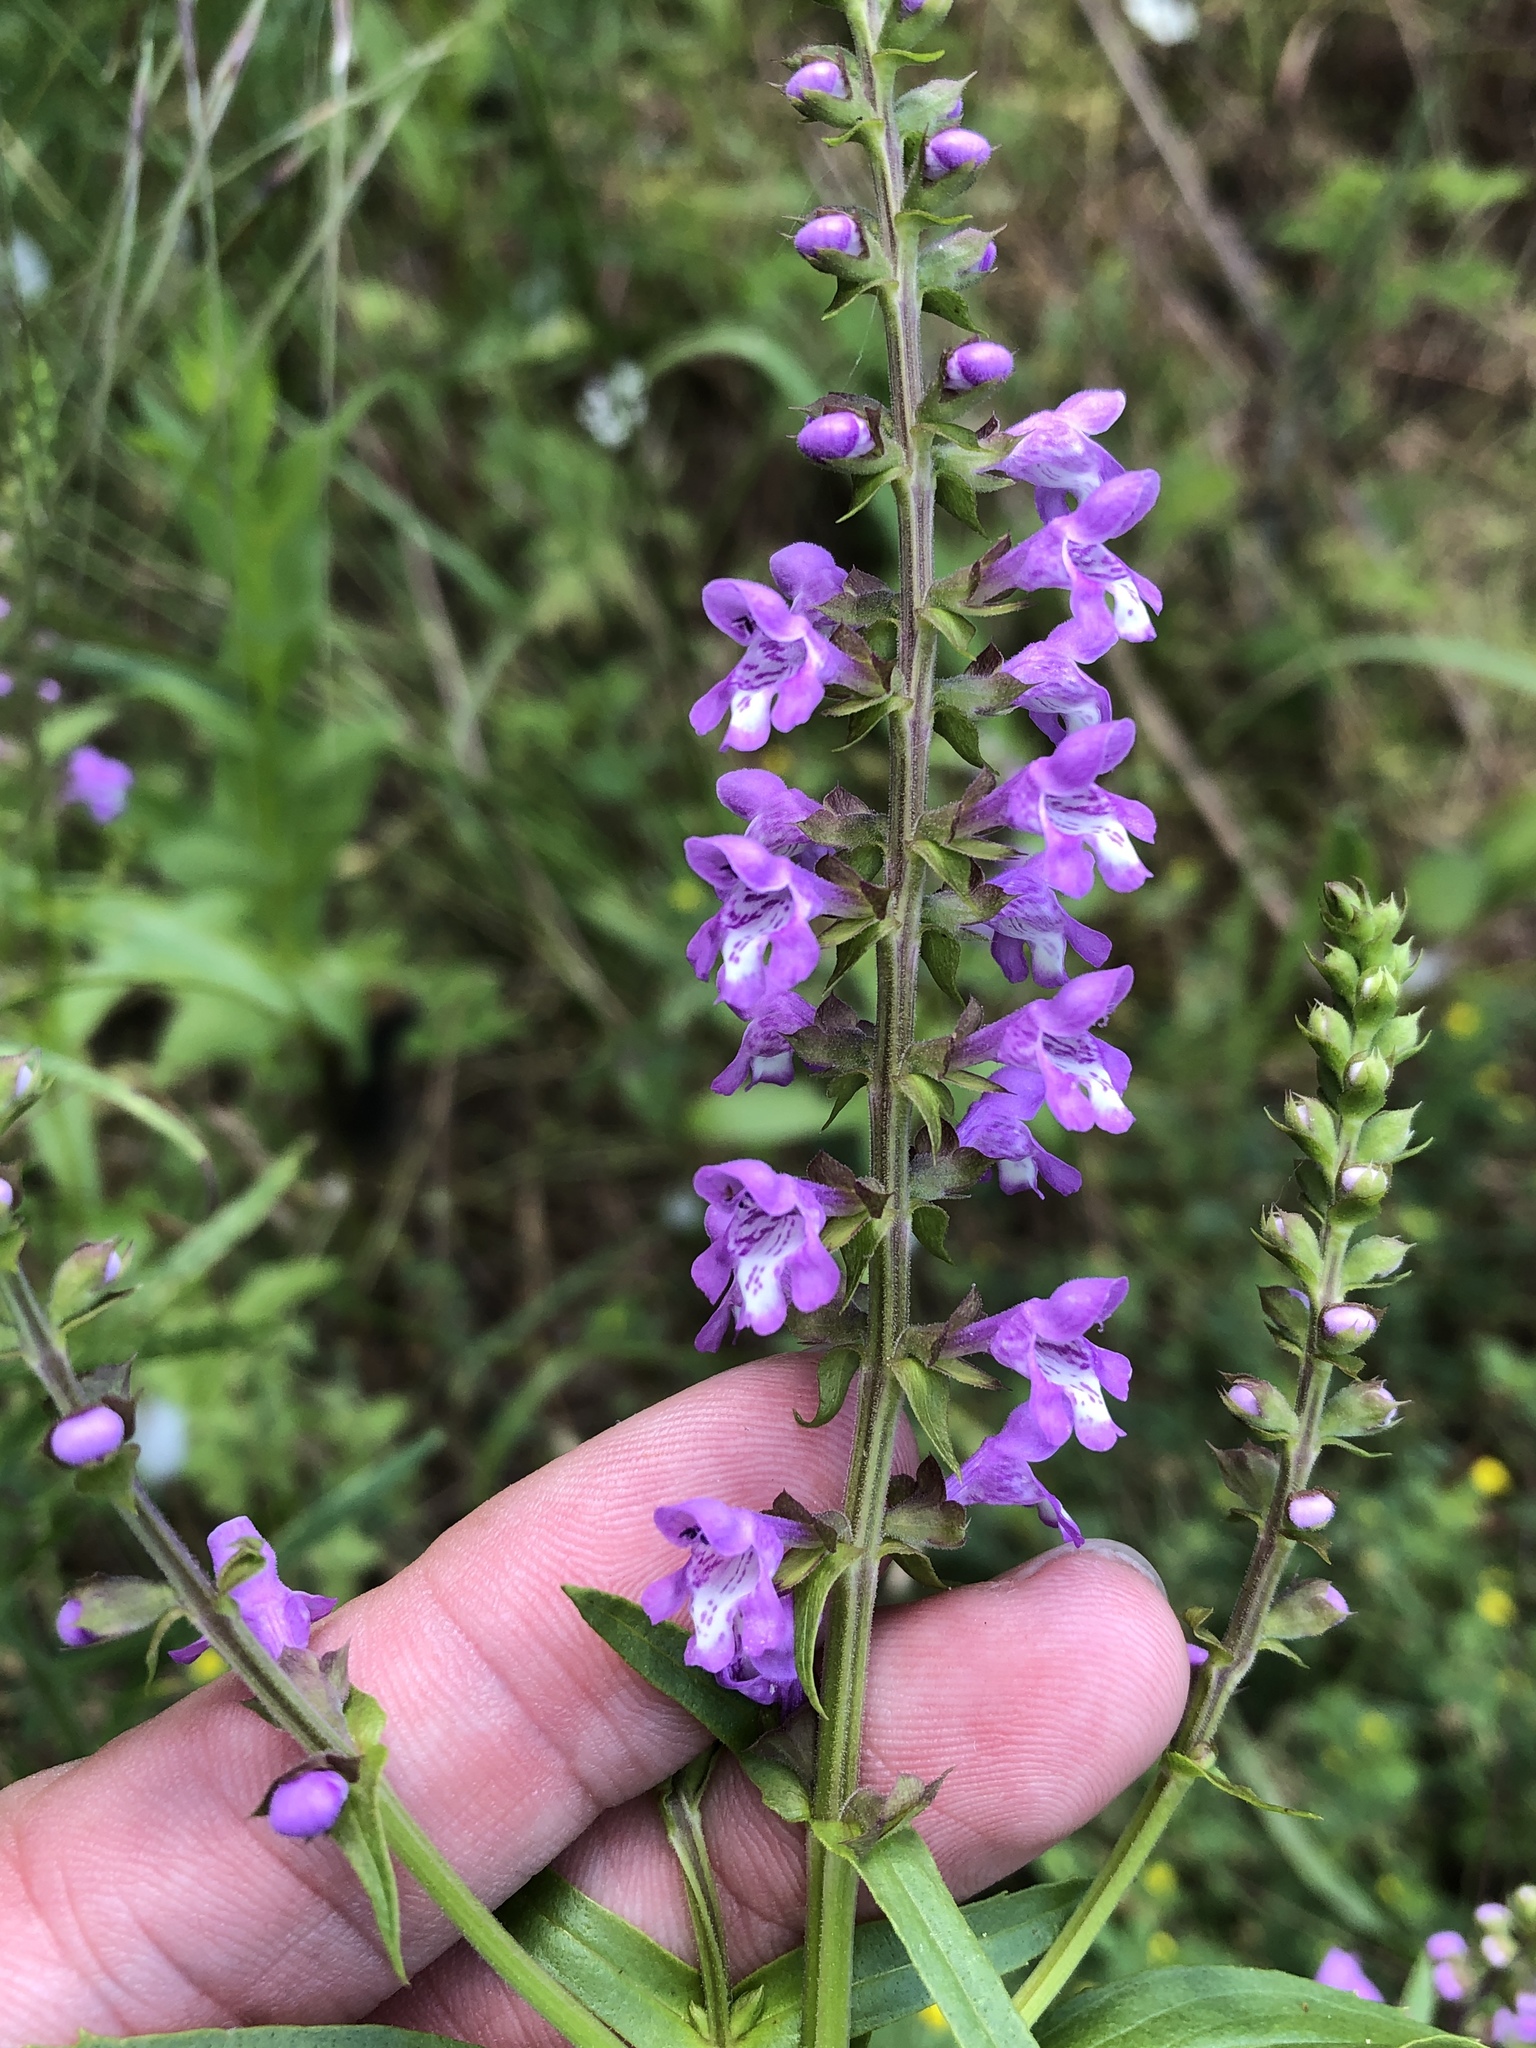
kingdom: Plantae
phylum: Tracheophyta
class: Magnoliopsida
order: Lamiales
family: Lamiaceae
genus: Warnockia
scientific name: Warnockia scutellarioides
